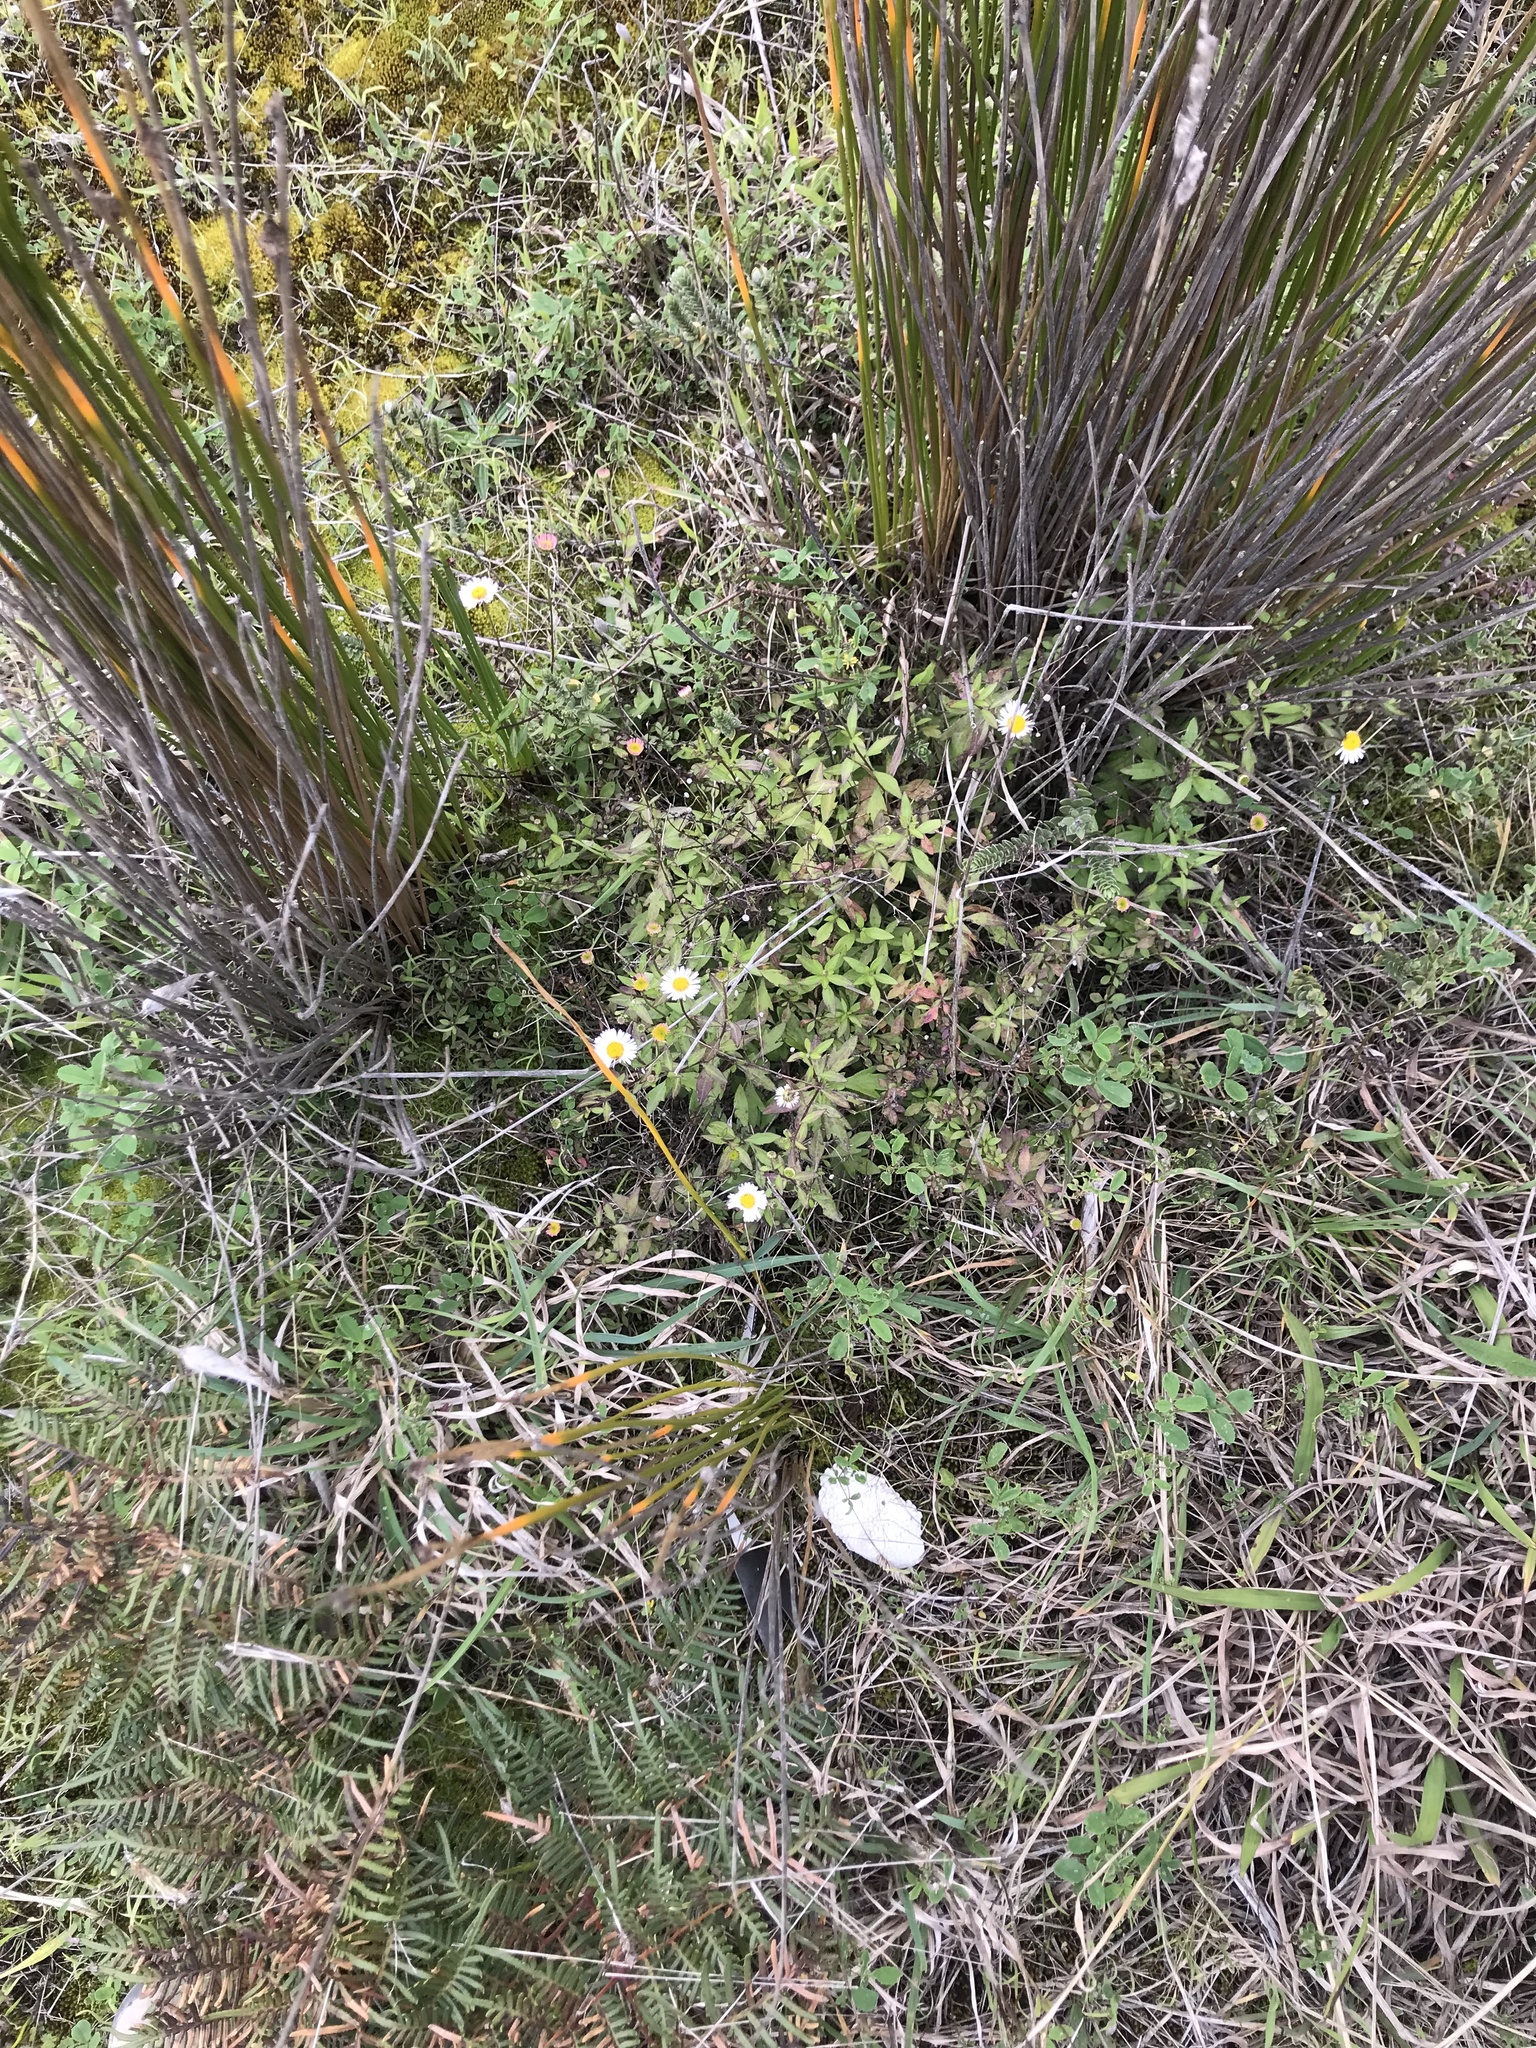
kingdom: Plantae
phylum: Tracheophyta
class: Magnoliopsida
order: Asterales
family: Asteraceae
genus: Erigeron
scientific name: Erigeron karvinskianus
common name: Mexican fleabane
